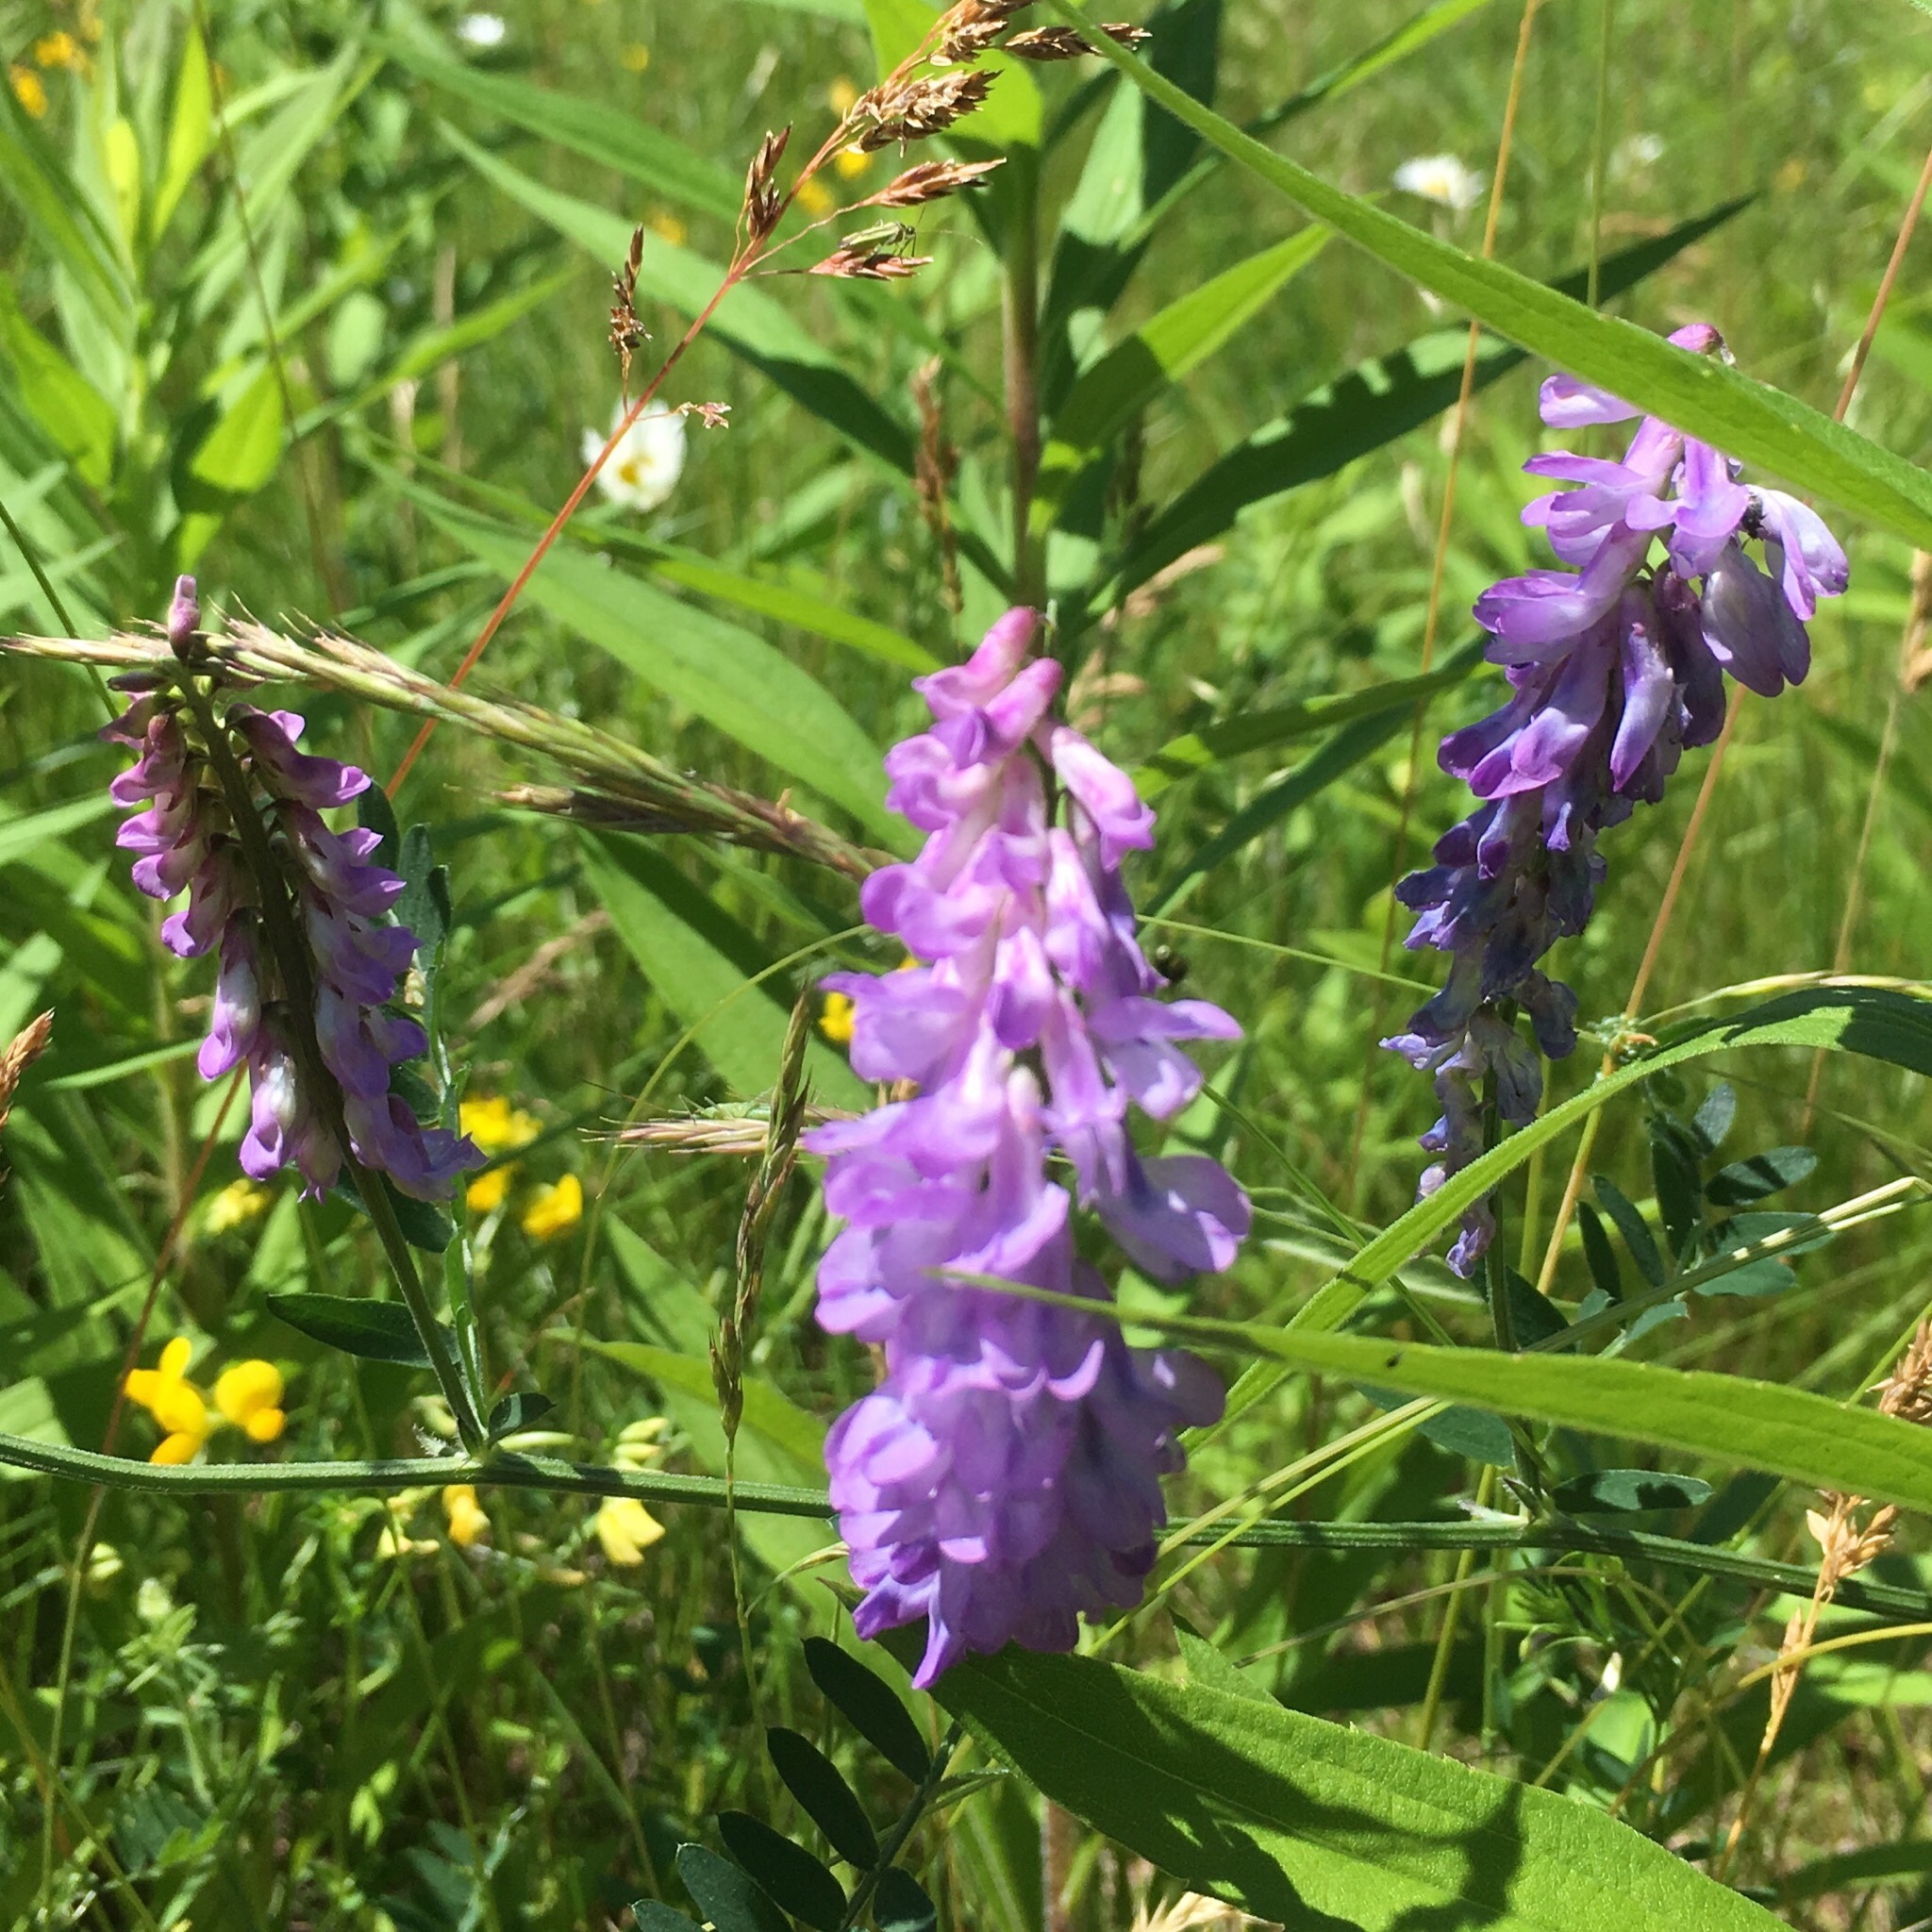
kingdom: Plantae
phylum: Tracheophyta
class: Magnoliopsida
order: Fabales
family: Fabaceae
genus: Vicia
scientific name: Vicia cracca
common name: Bird vetch
